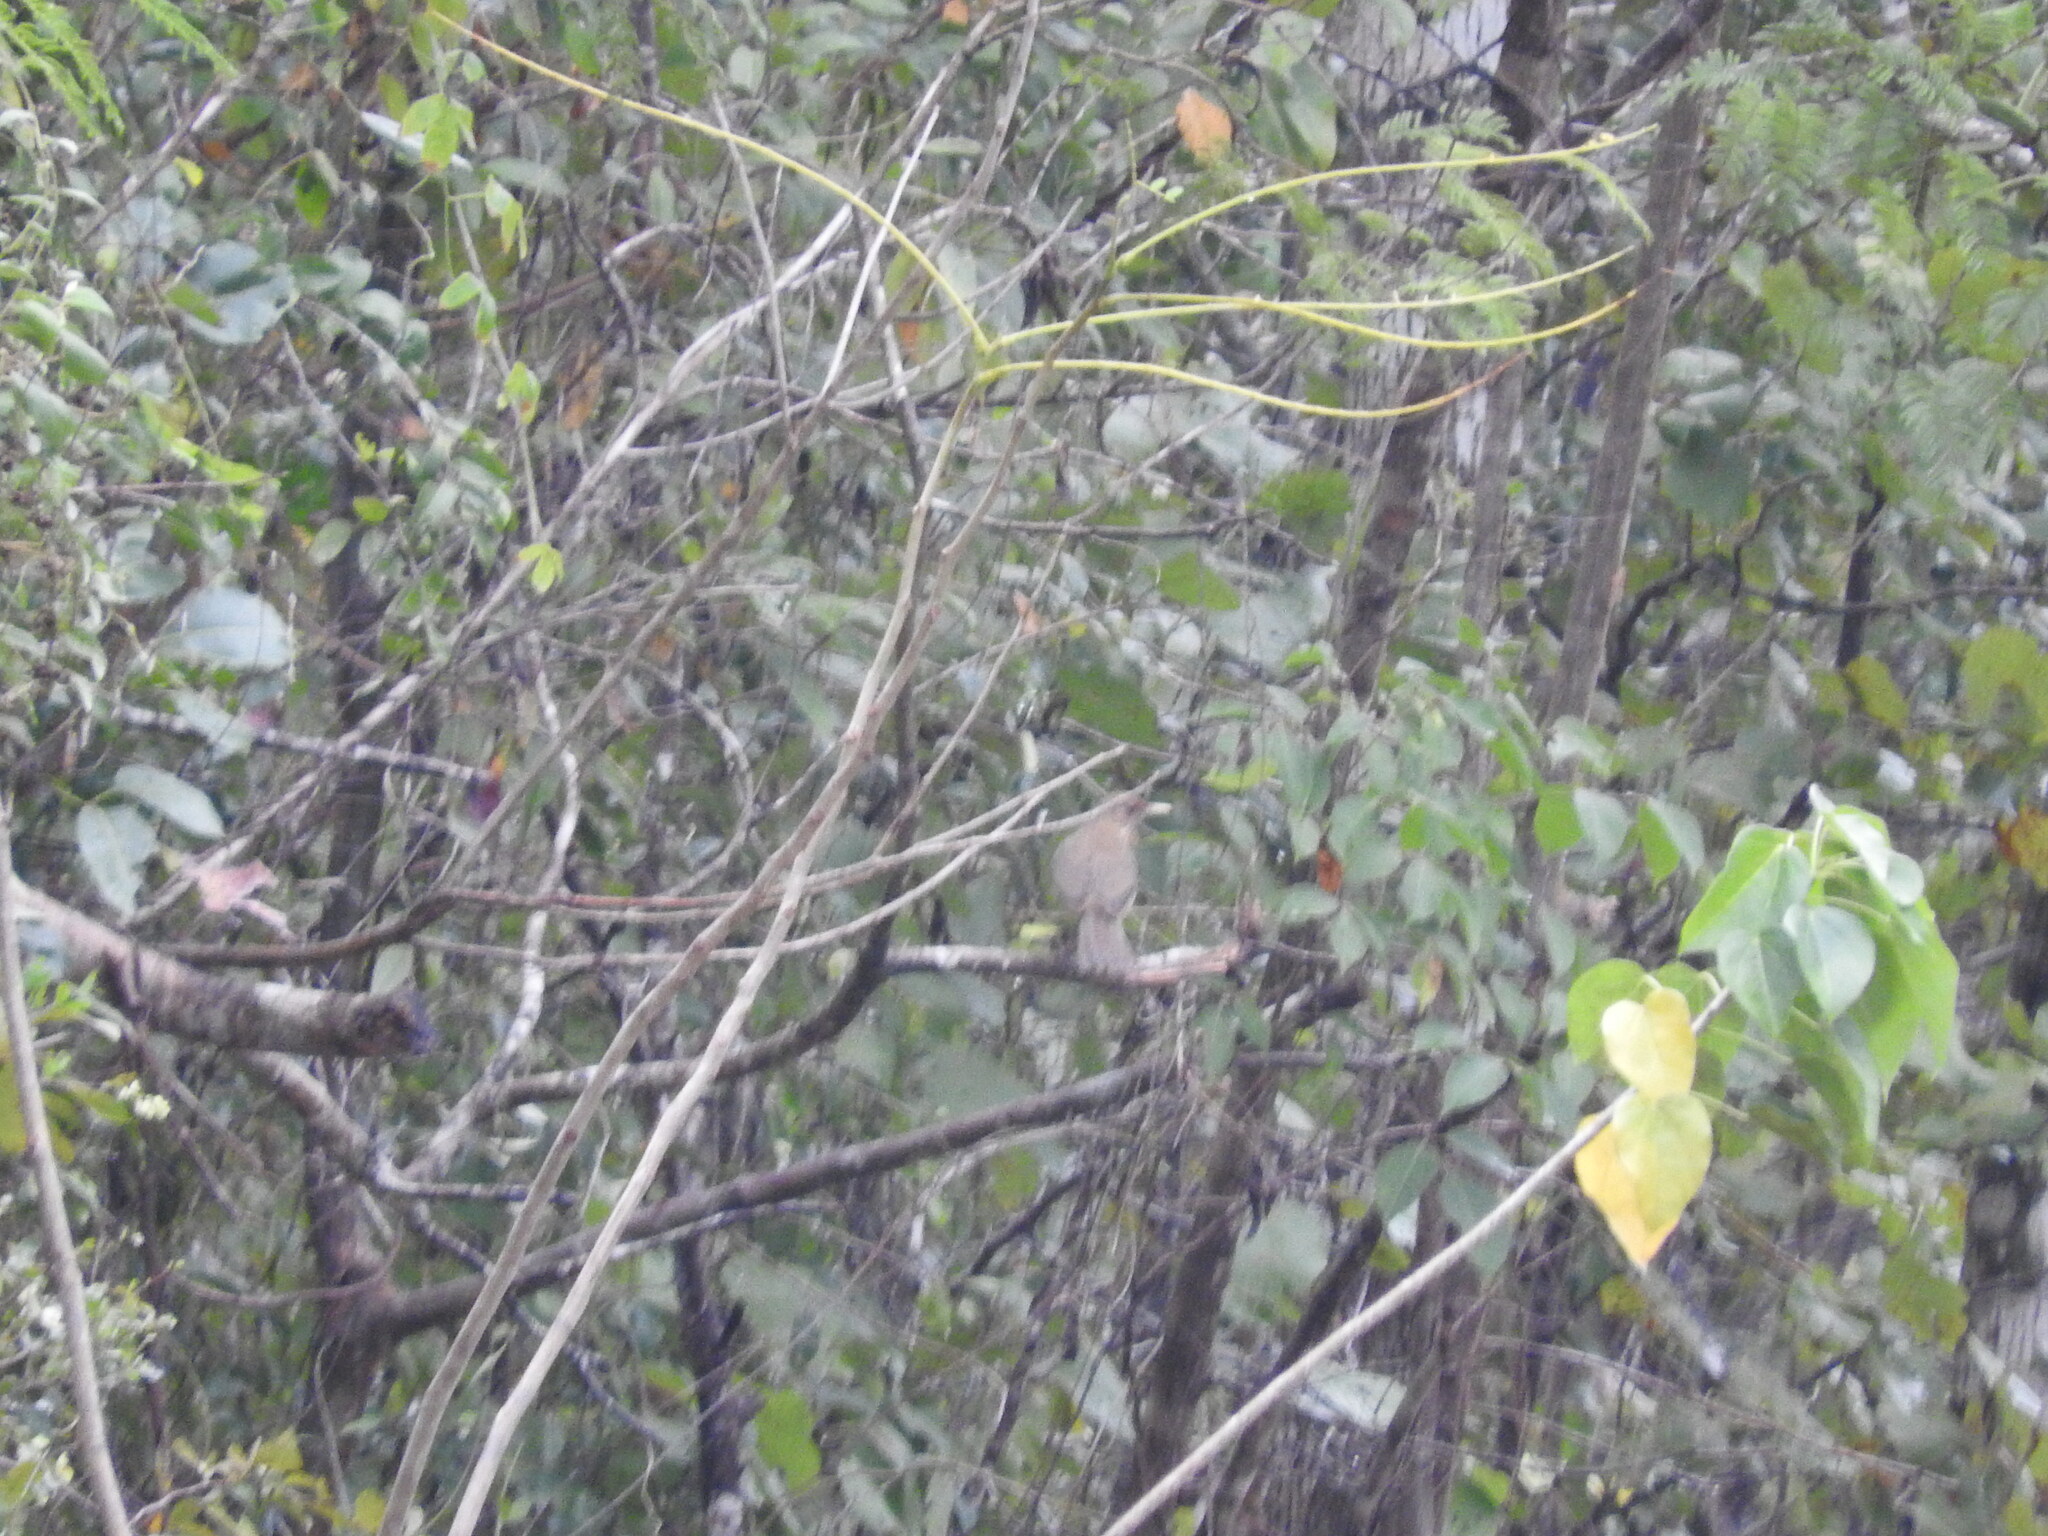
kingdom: Animalia
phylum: Chordata
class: Aves
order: Passeriformes
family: Turdidae
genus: Turdus
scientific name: Turdus grayi
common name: Clay-colored thrush
